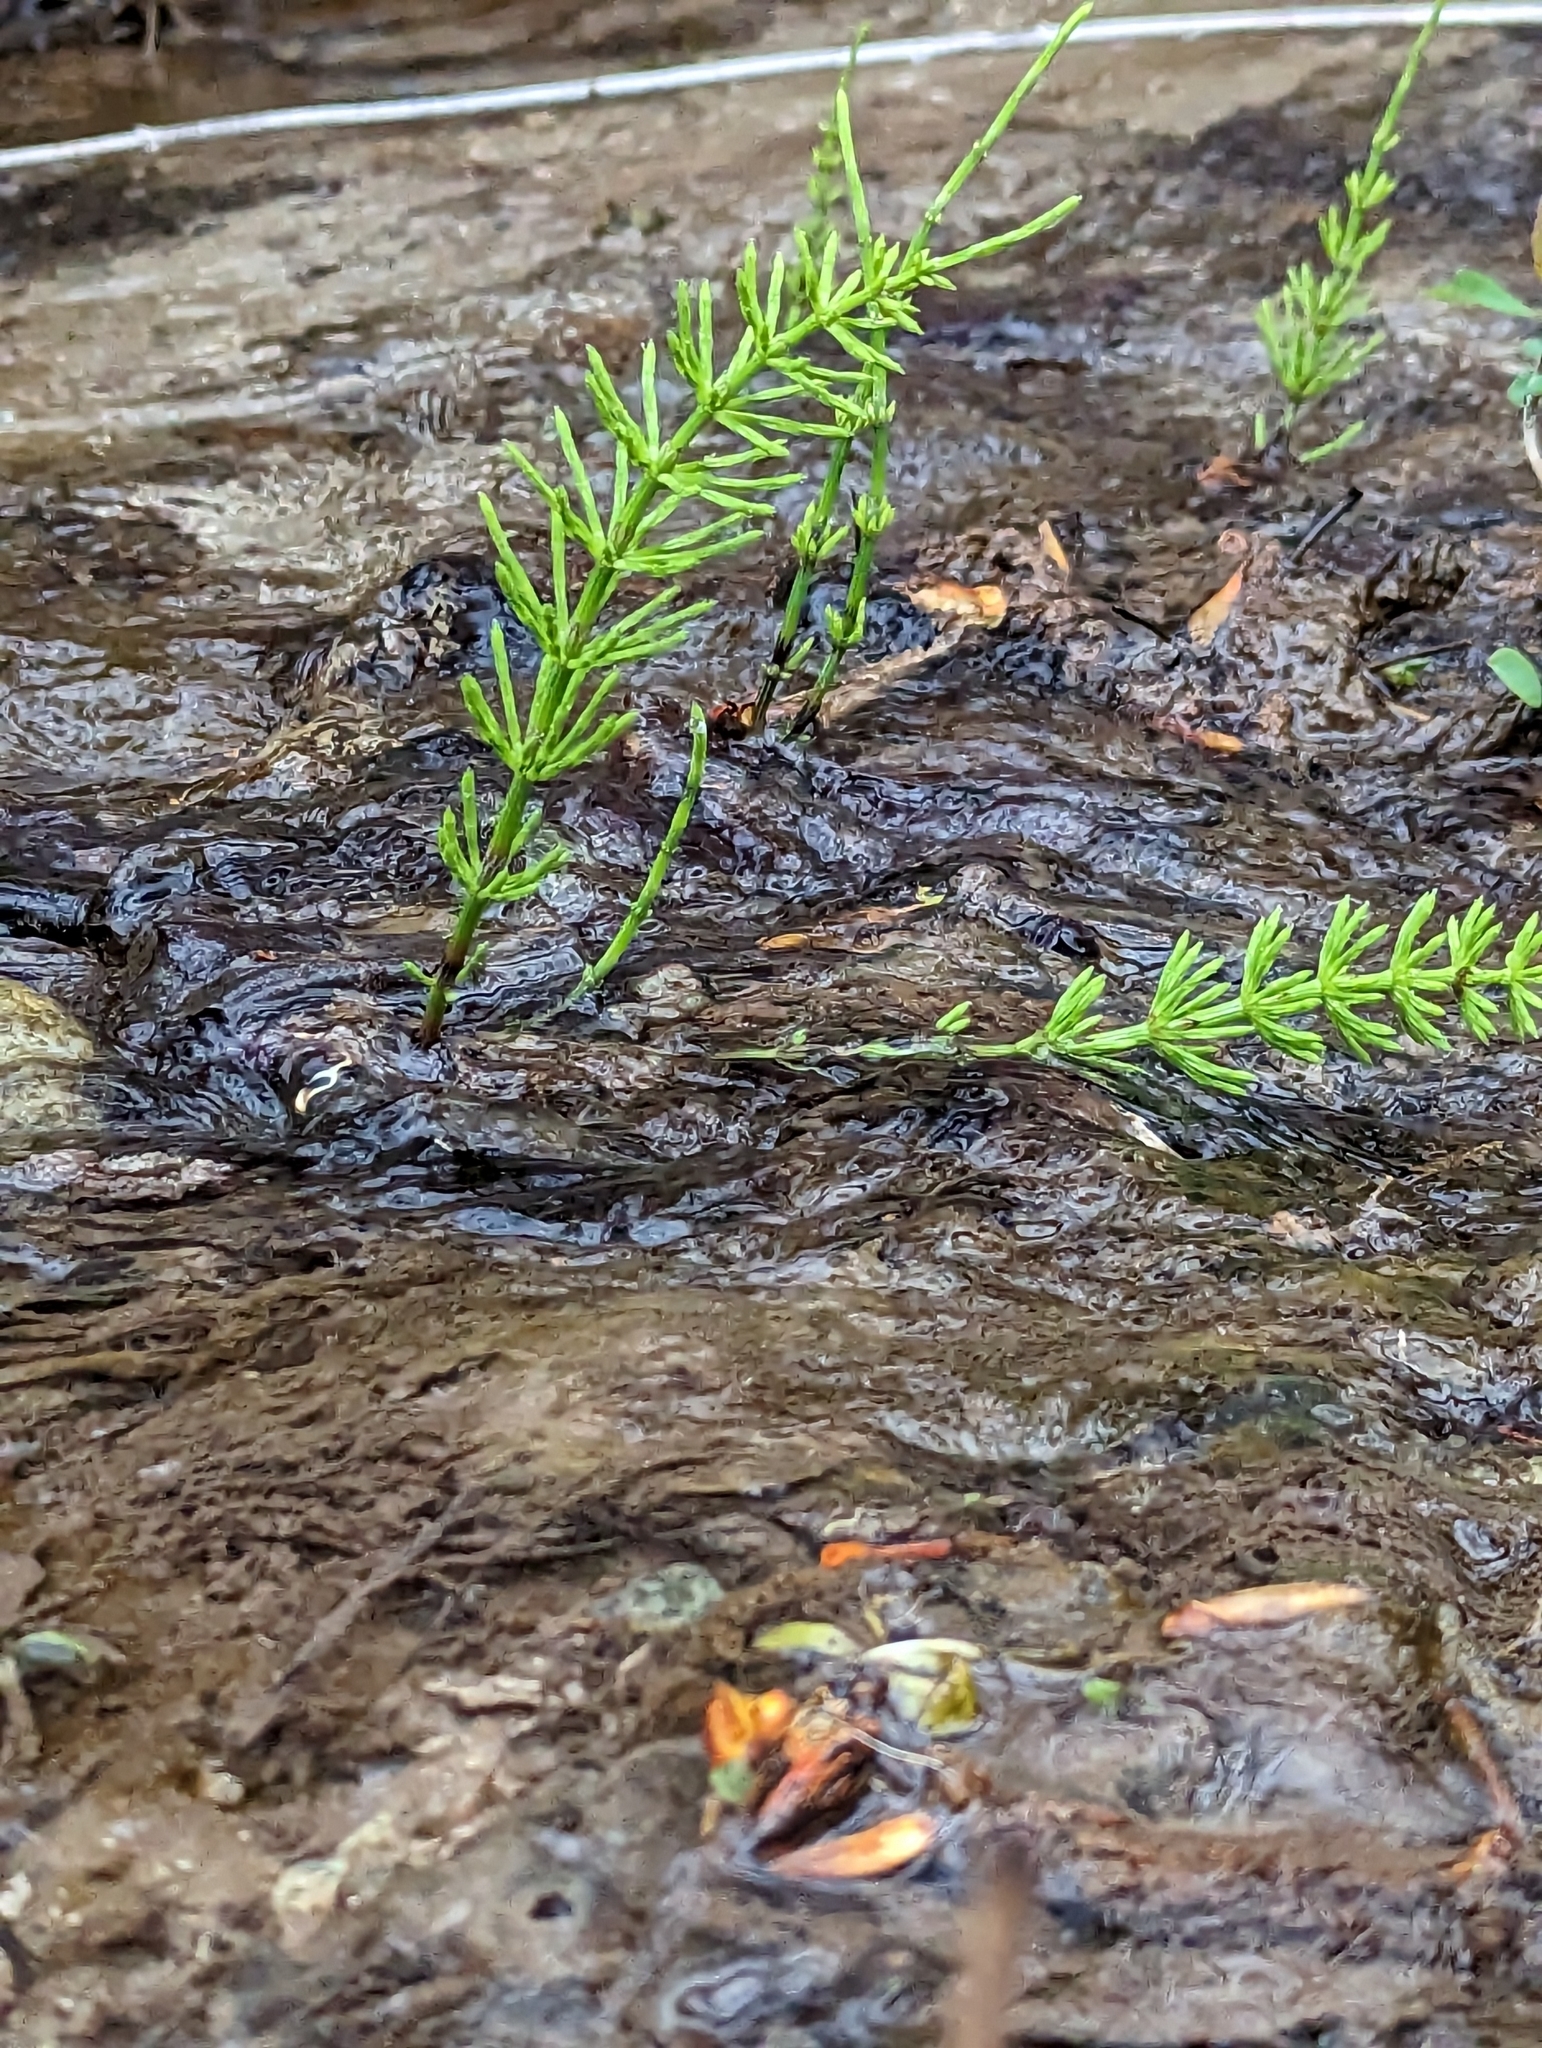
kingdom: Plantae
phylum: Tracheophyta
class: Polypodiopsida
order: Equisetales
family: Equisetaceae
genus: Equisetum
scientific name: Equisetum arvense
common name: Field horsetail
